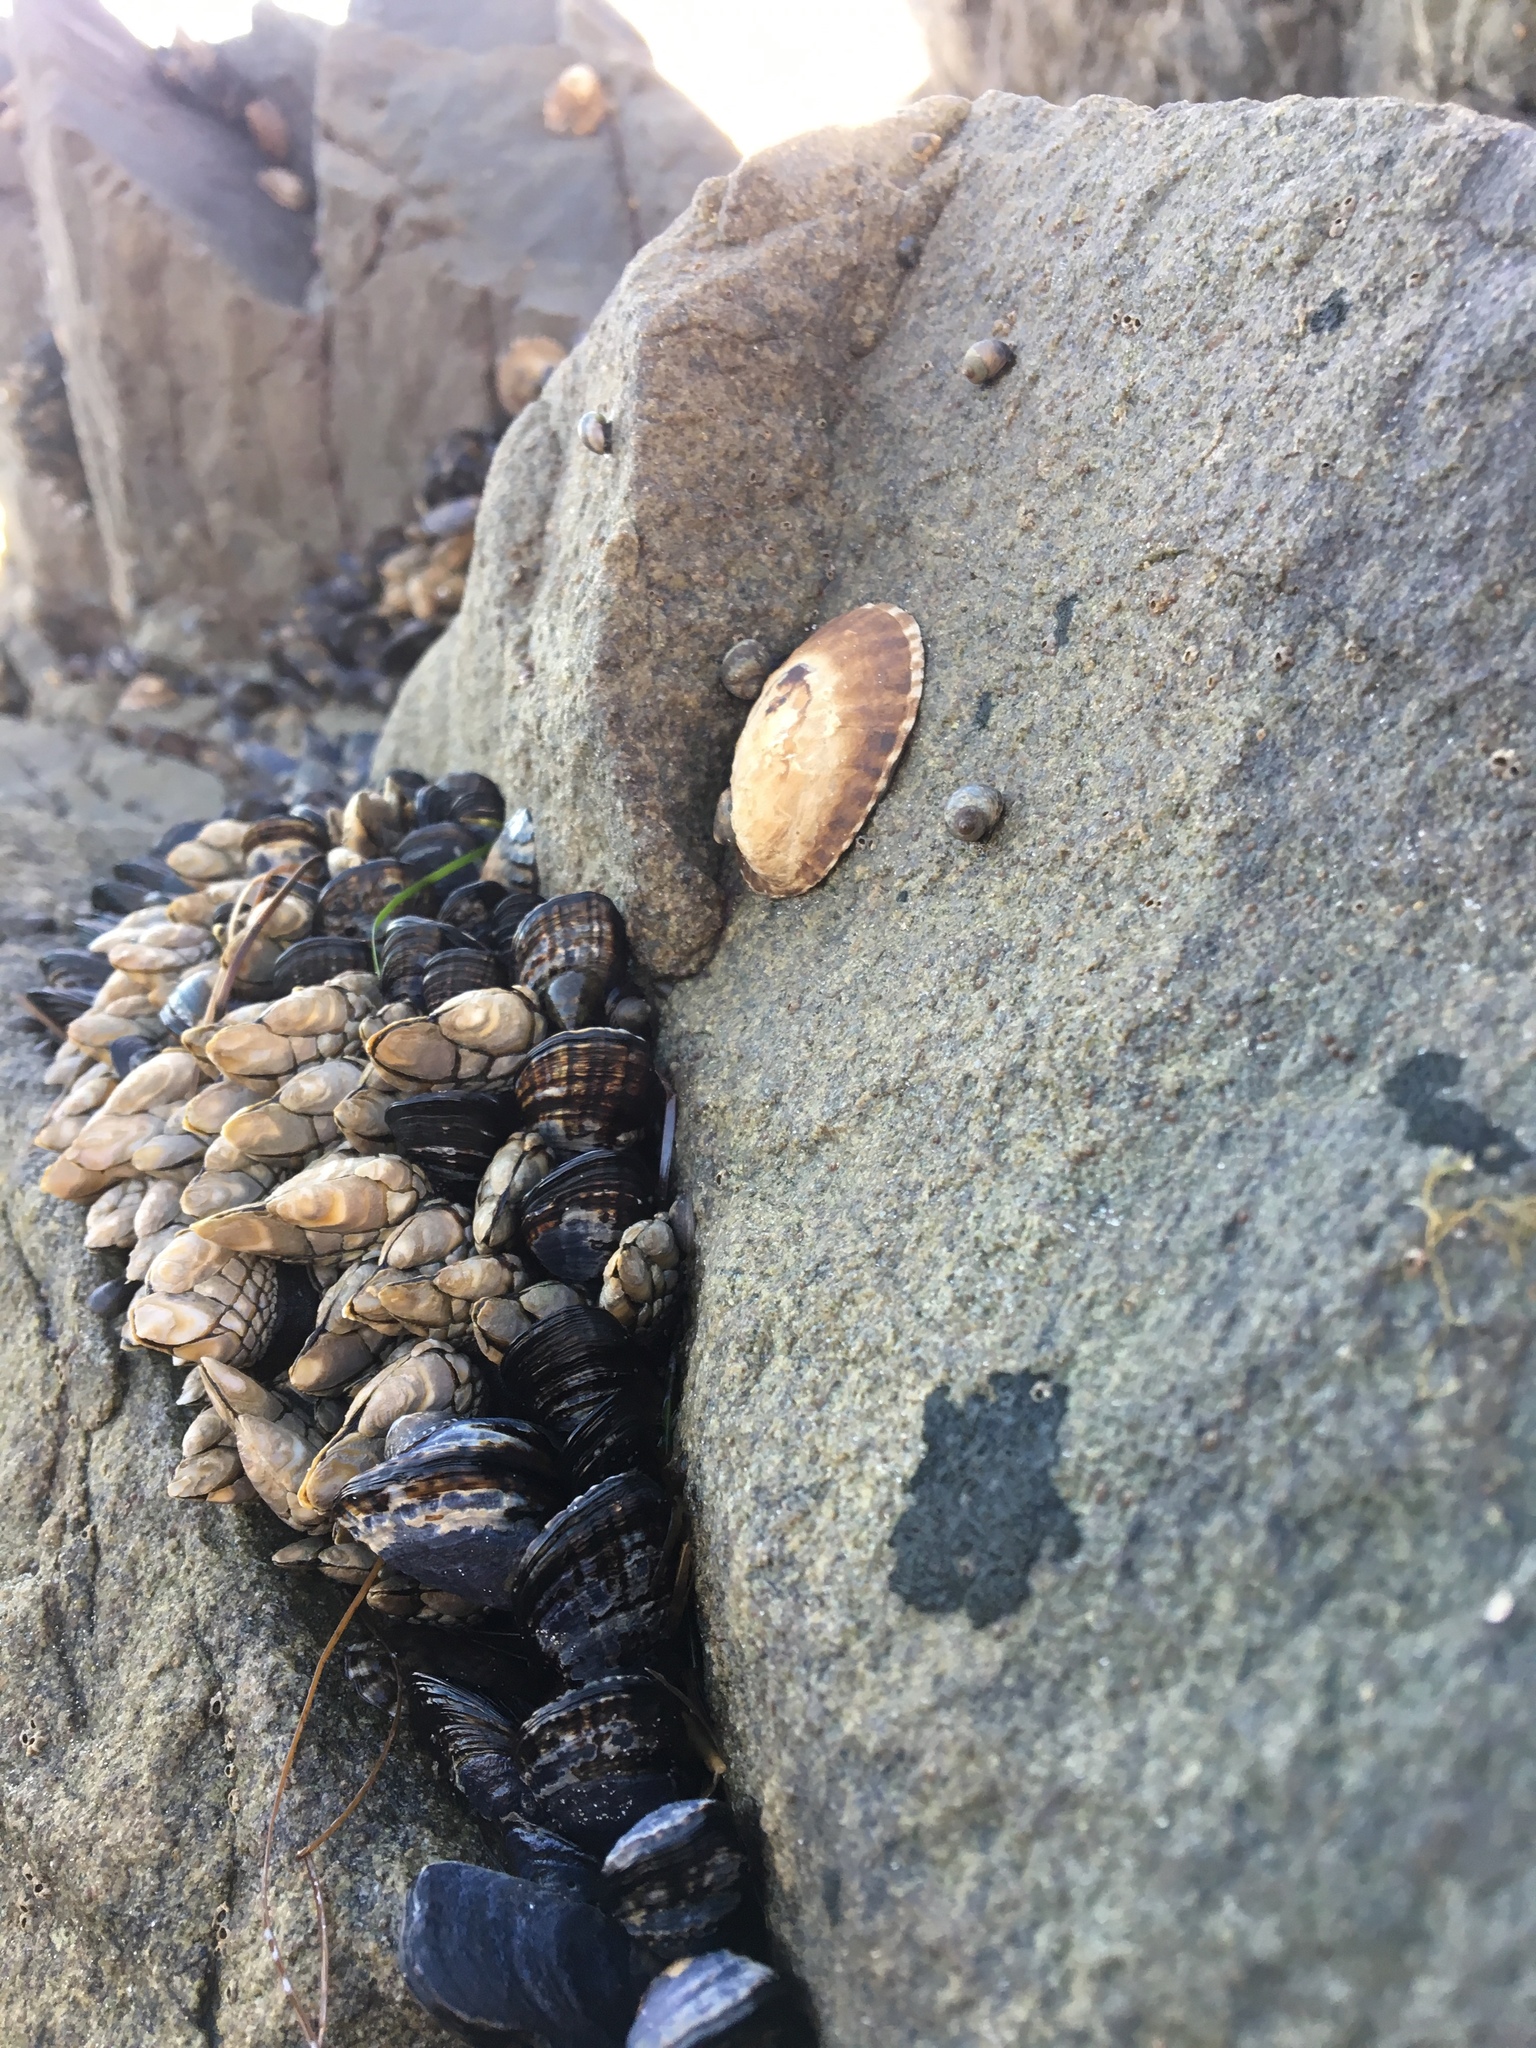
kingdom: Animalia
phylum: Mollusca
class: Gastropoda
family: Lottiidae
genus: Lottia
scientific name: Lottia gigantea
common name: Owl limpet
